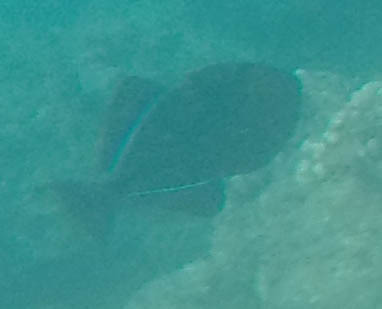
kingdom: Animalia
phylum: Chordata
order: Tetraodontiformes
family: Balistidae
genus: Melichthys
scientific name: Melichthys niger
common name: Black durgon
